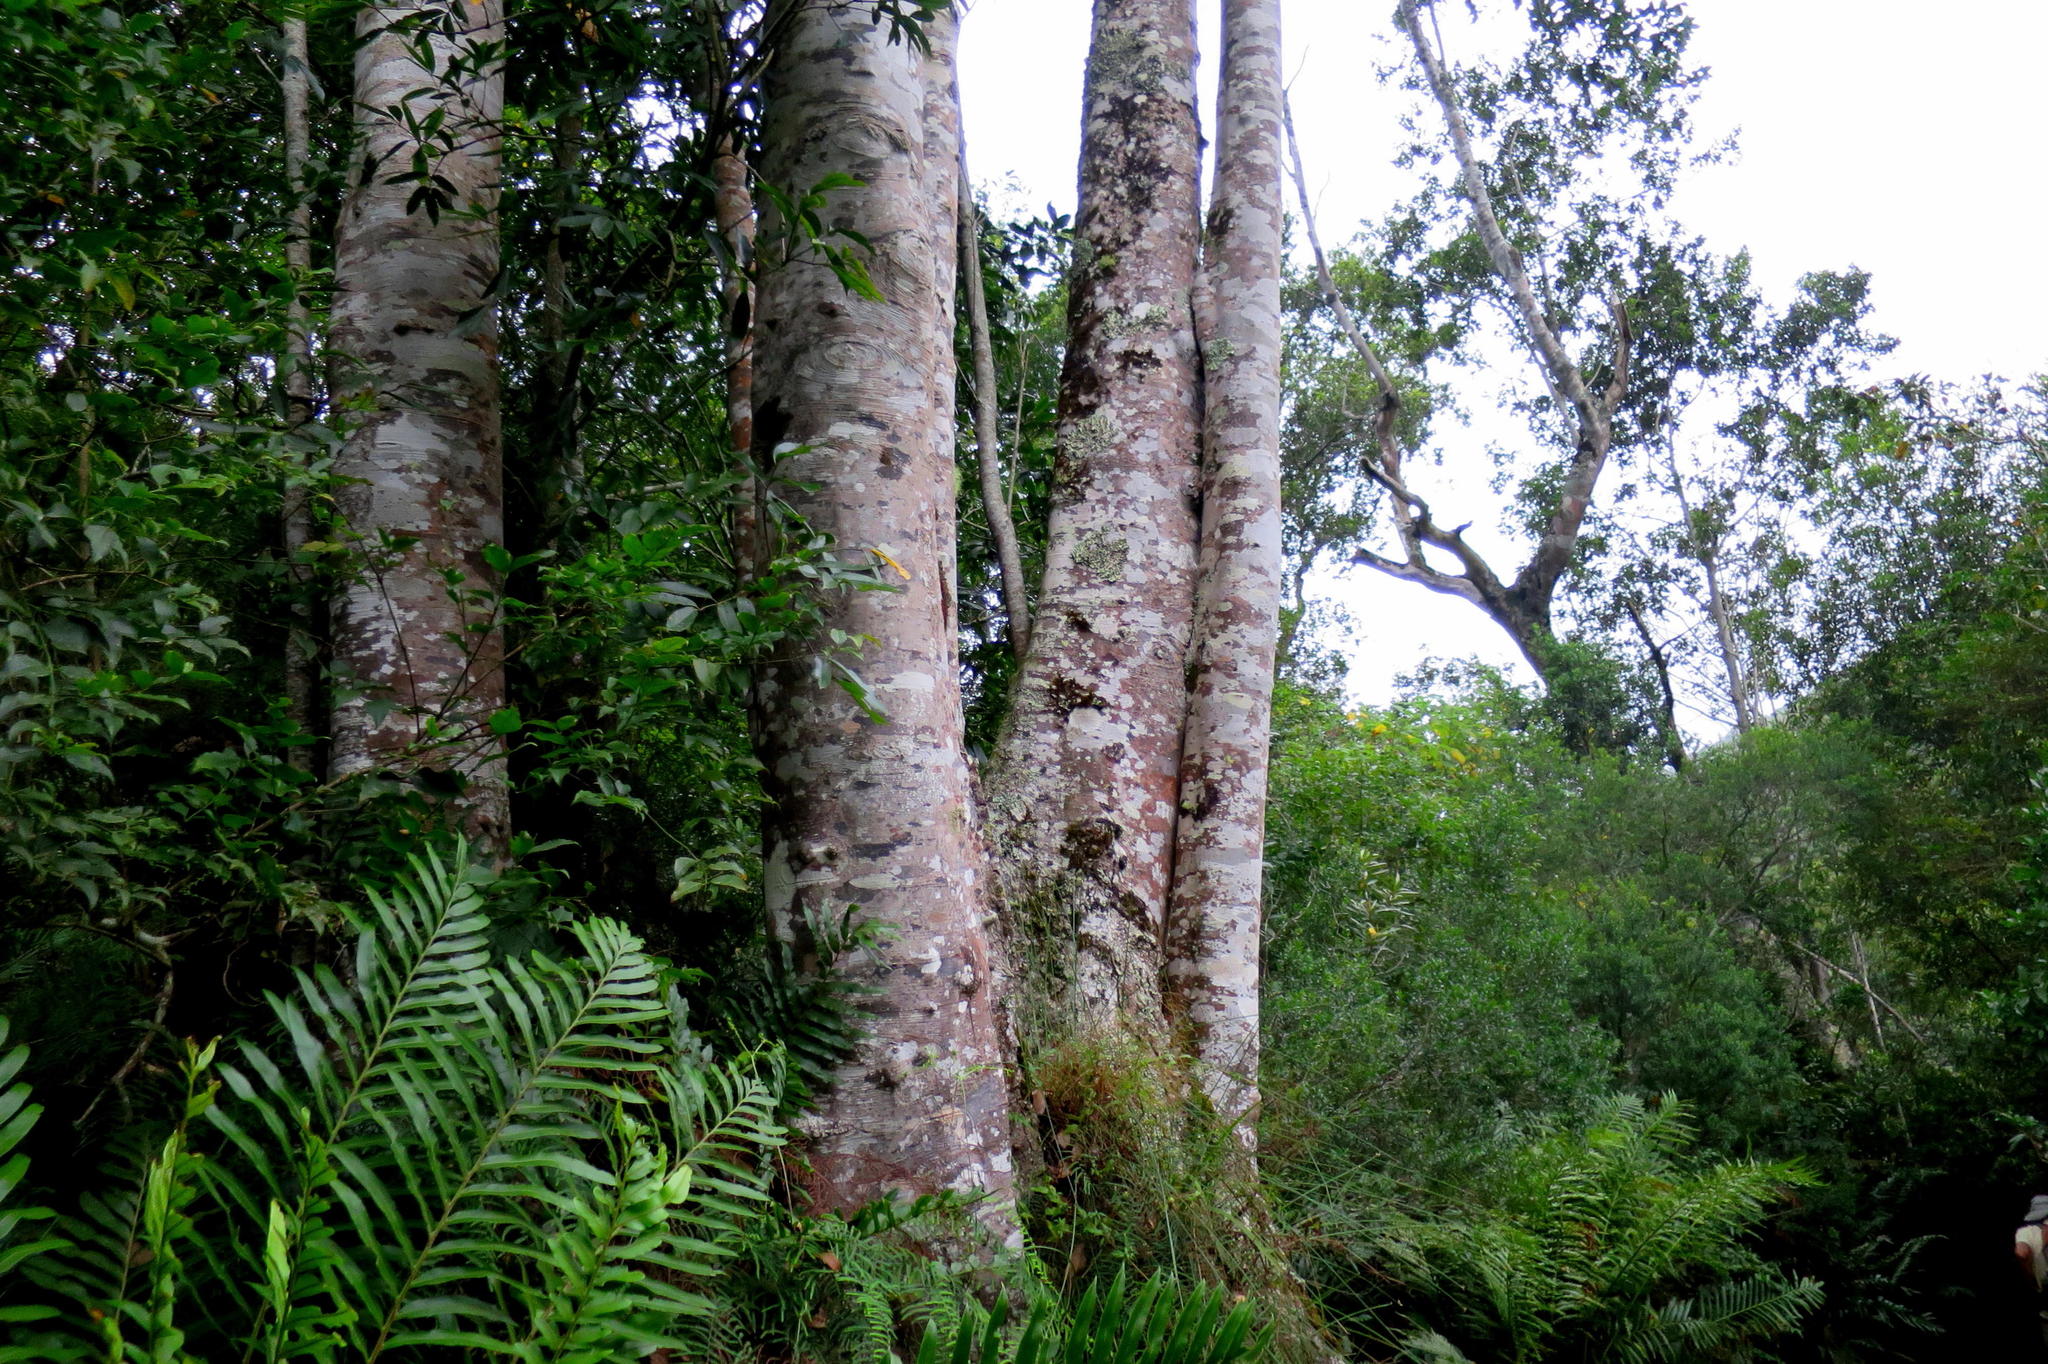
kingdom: Plantae
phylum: Tracheophyta
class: Magnoliopsida
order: Laurales
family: Lauraceae
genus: Ocotea
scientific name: Ocotea bullata
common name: Black stinkwood
